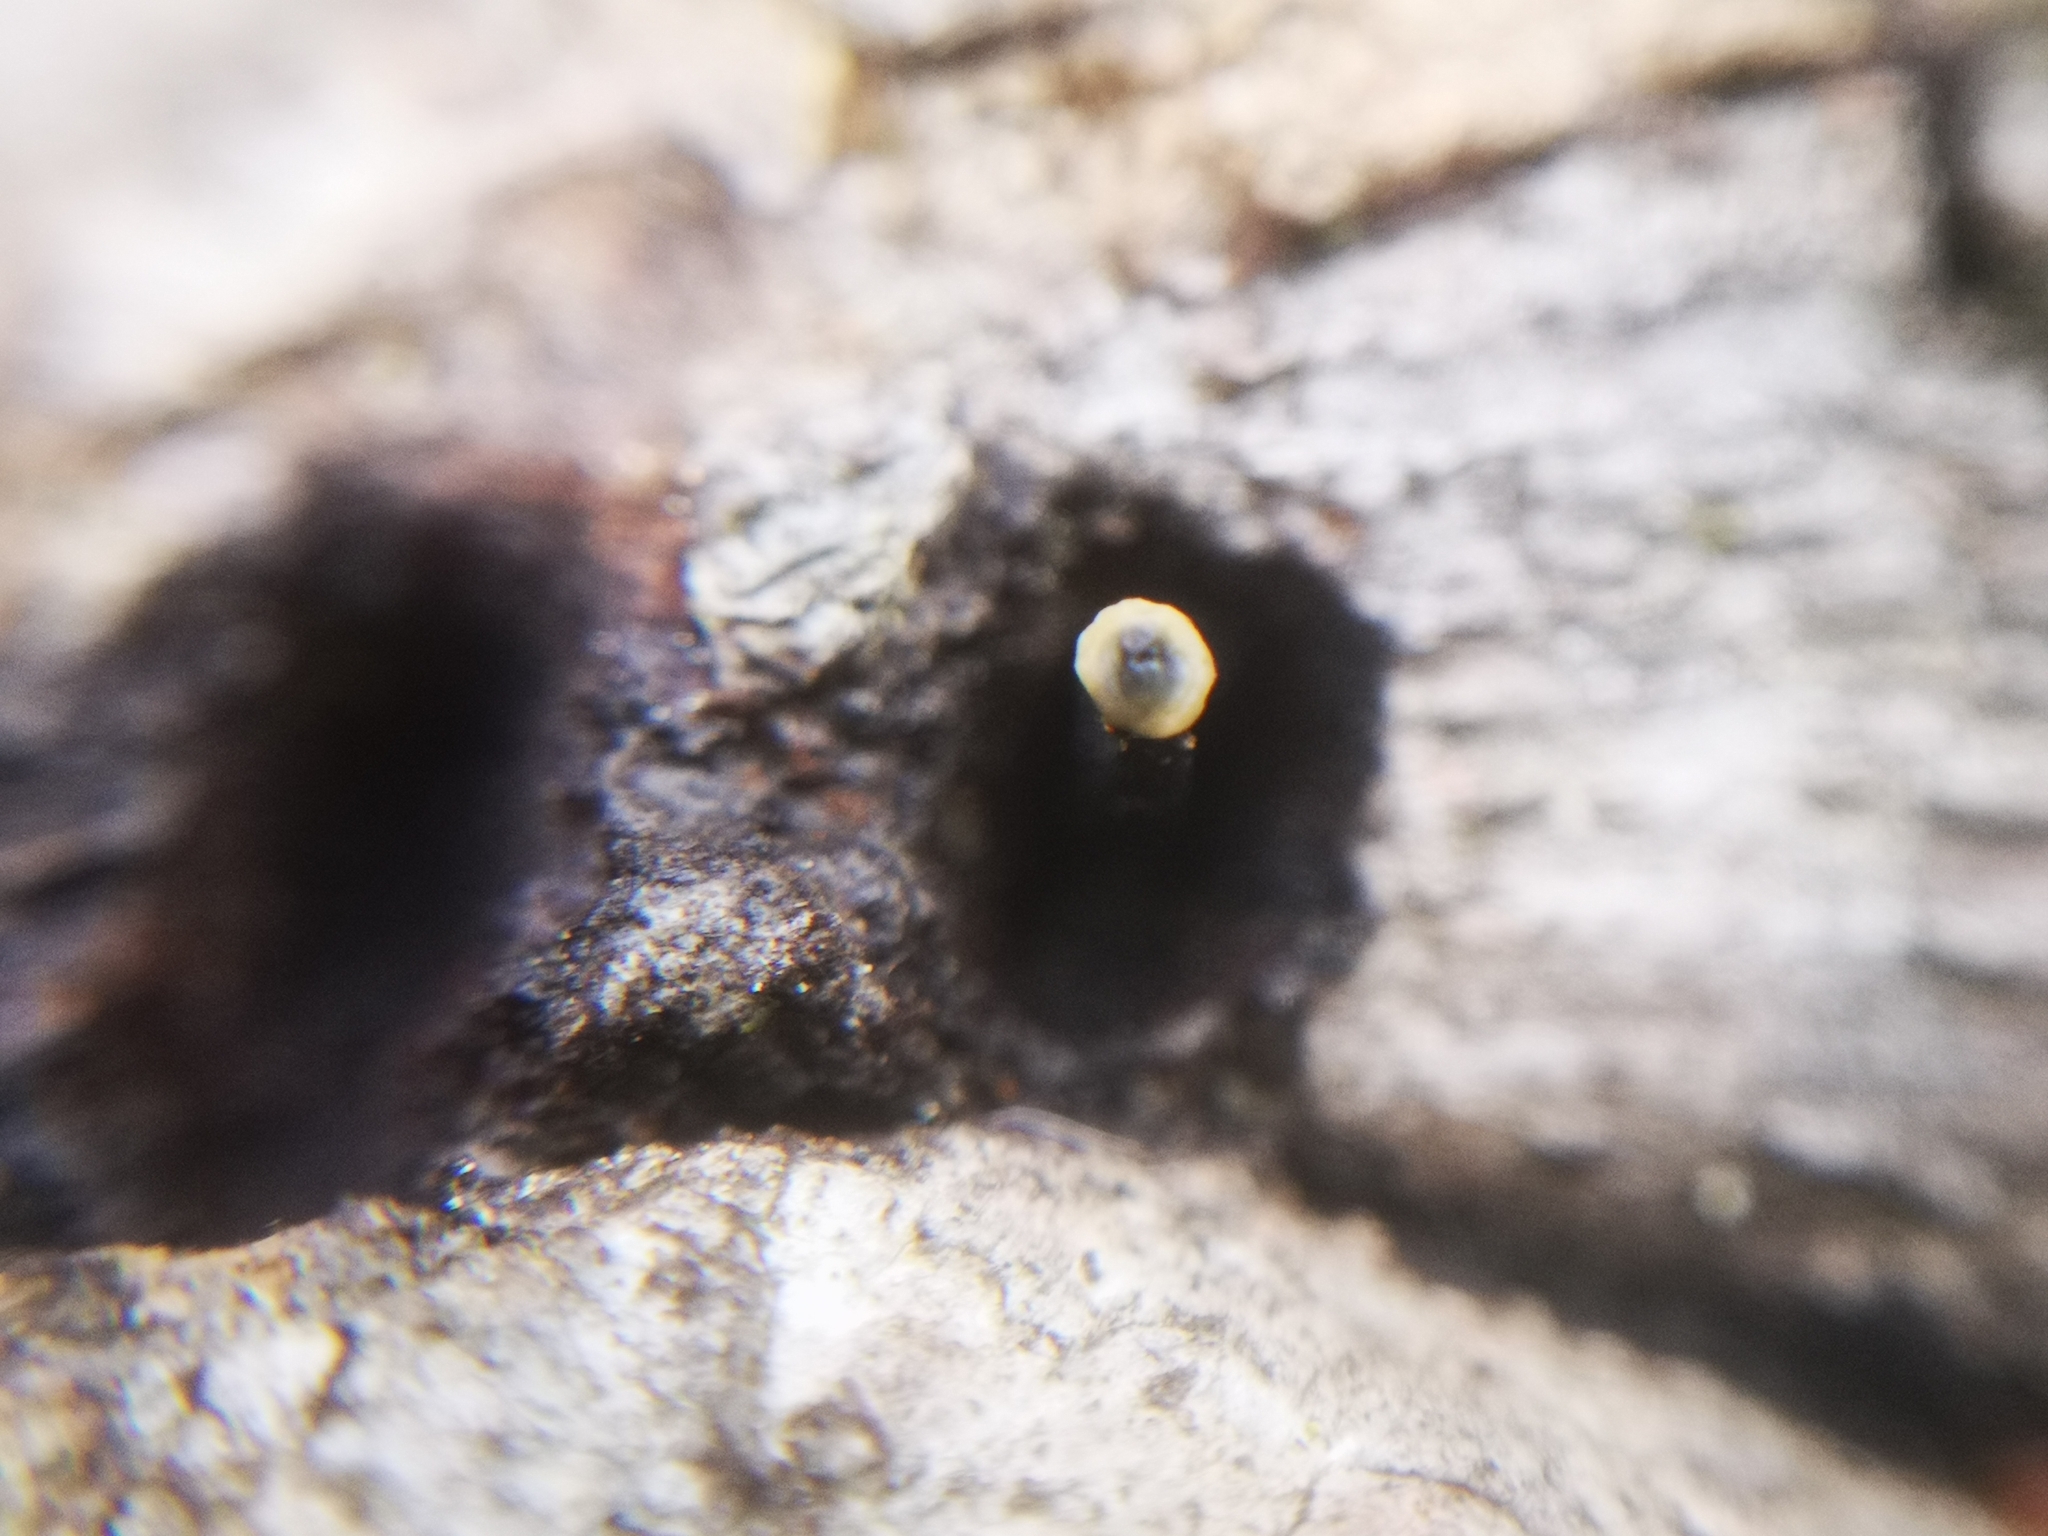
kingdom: Fungi
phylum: Ascomycota
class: Leotiomycetes
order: Helotiales
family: Bulgariaceae
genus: Holwaya
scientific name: Holwaya mucida
